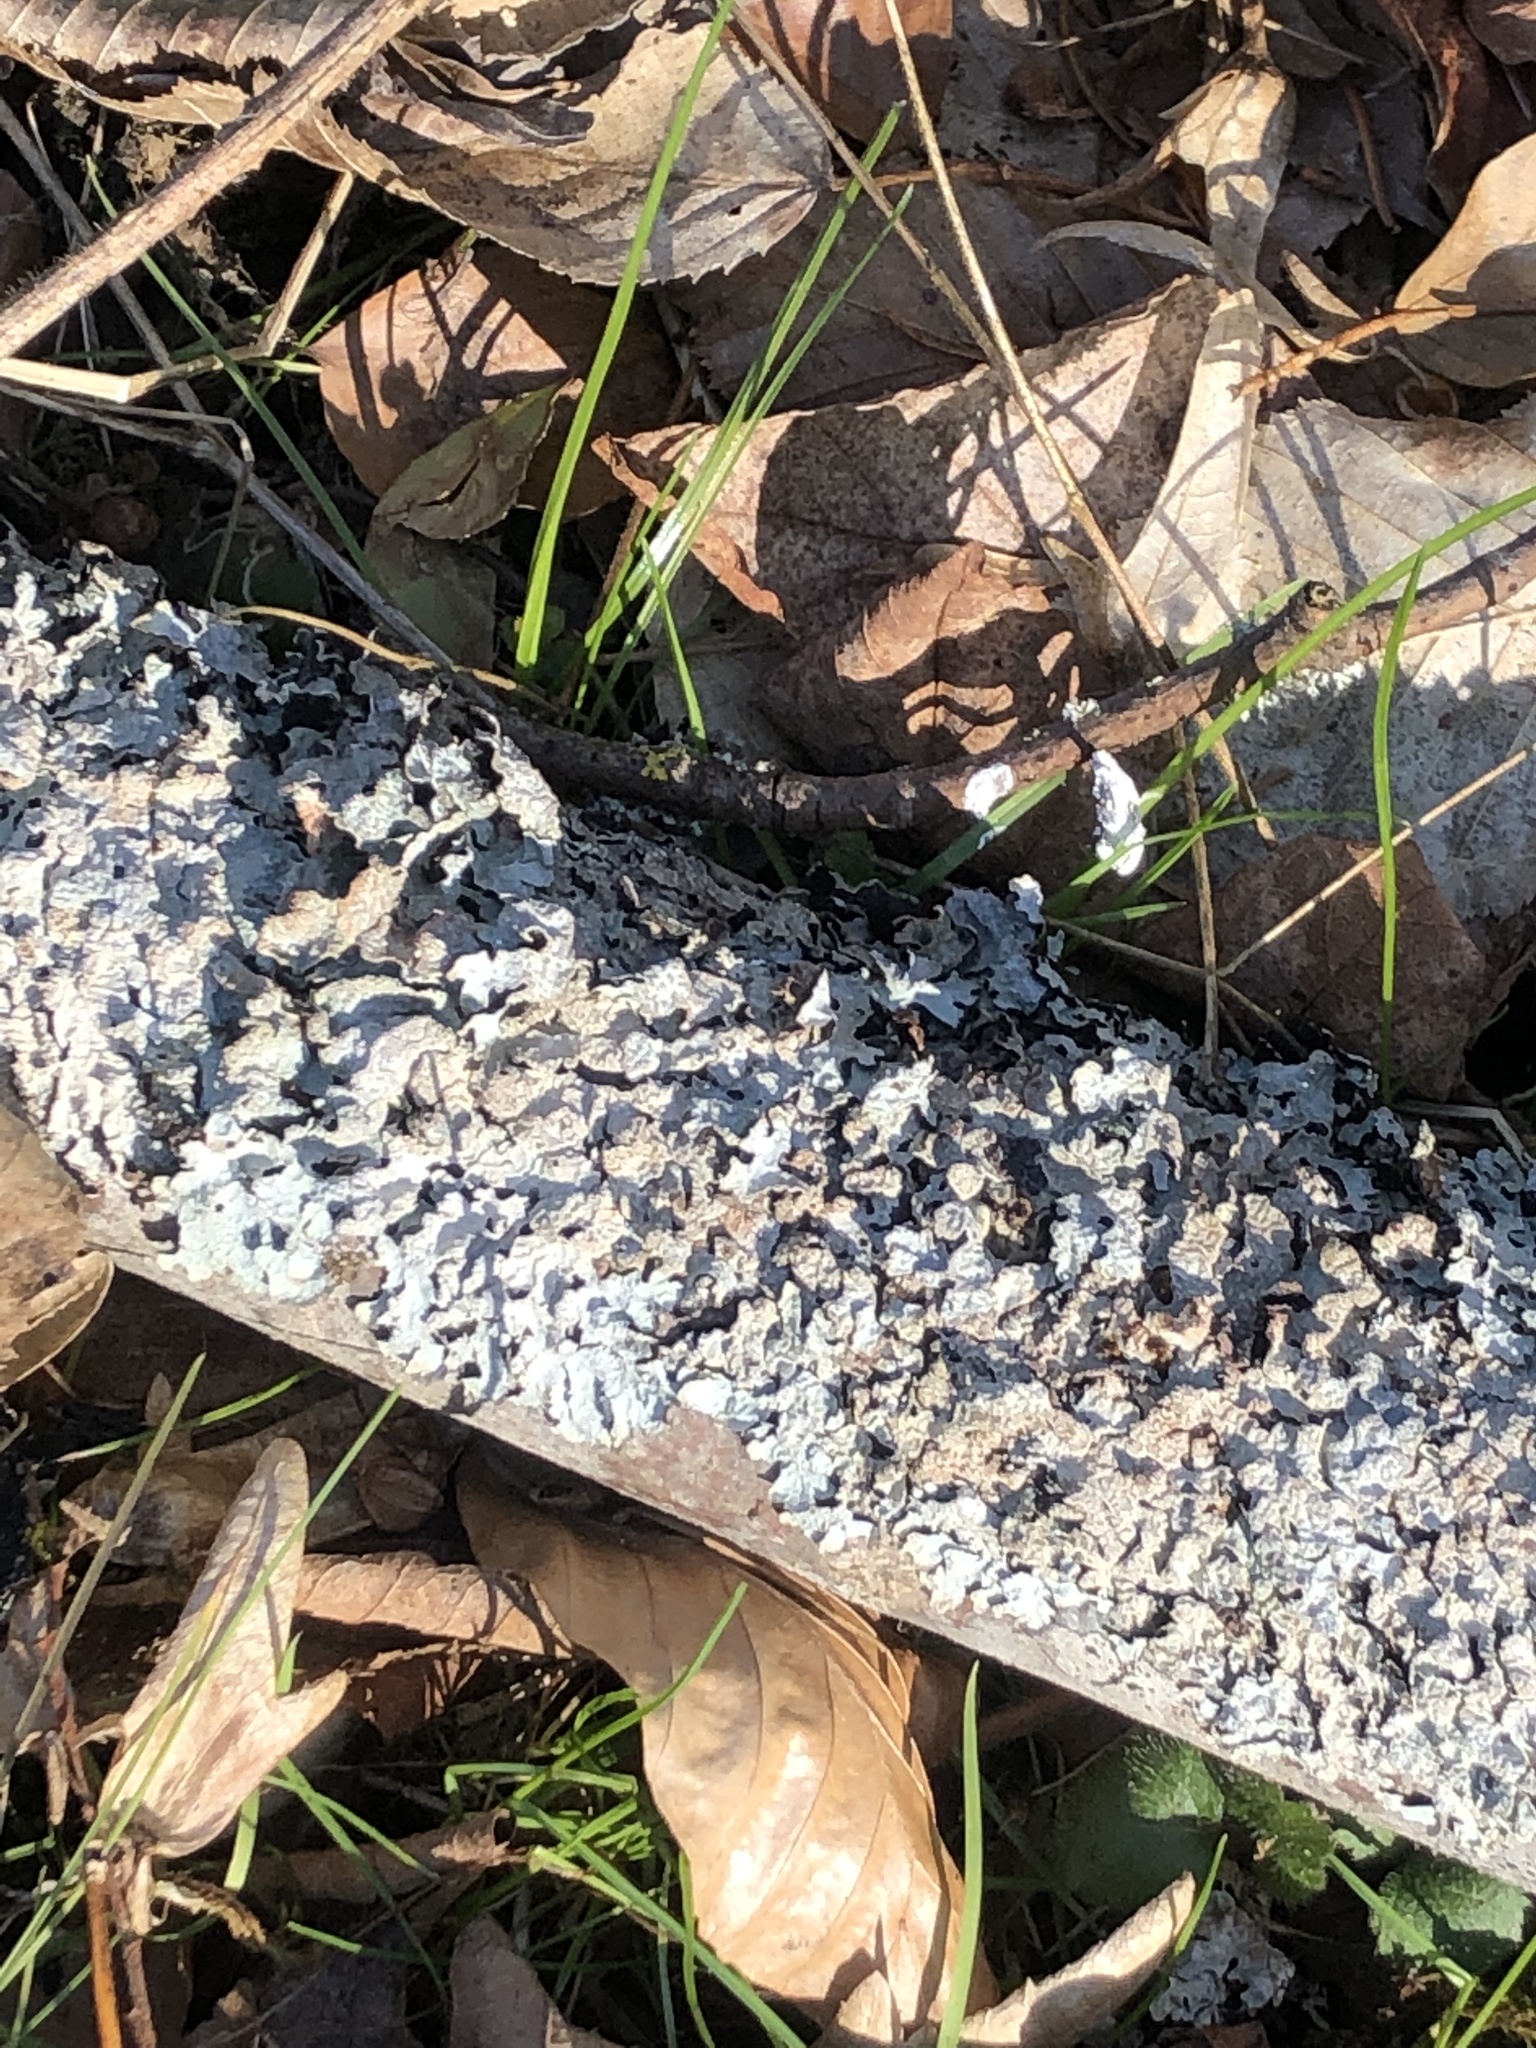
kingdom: Fungi
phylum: Ascomycota
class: Lecanoromycetes
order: Lecanorales
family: Parmeliaceae
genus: Parmelia
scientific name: Parmelia sulcata
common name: Netted shield lichen
